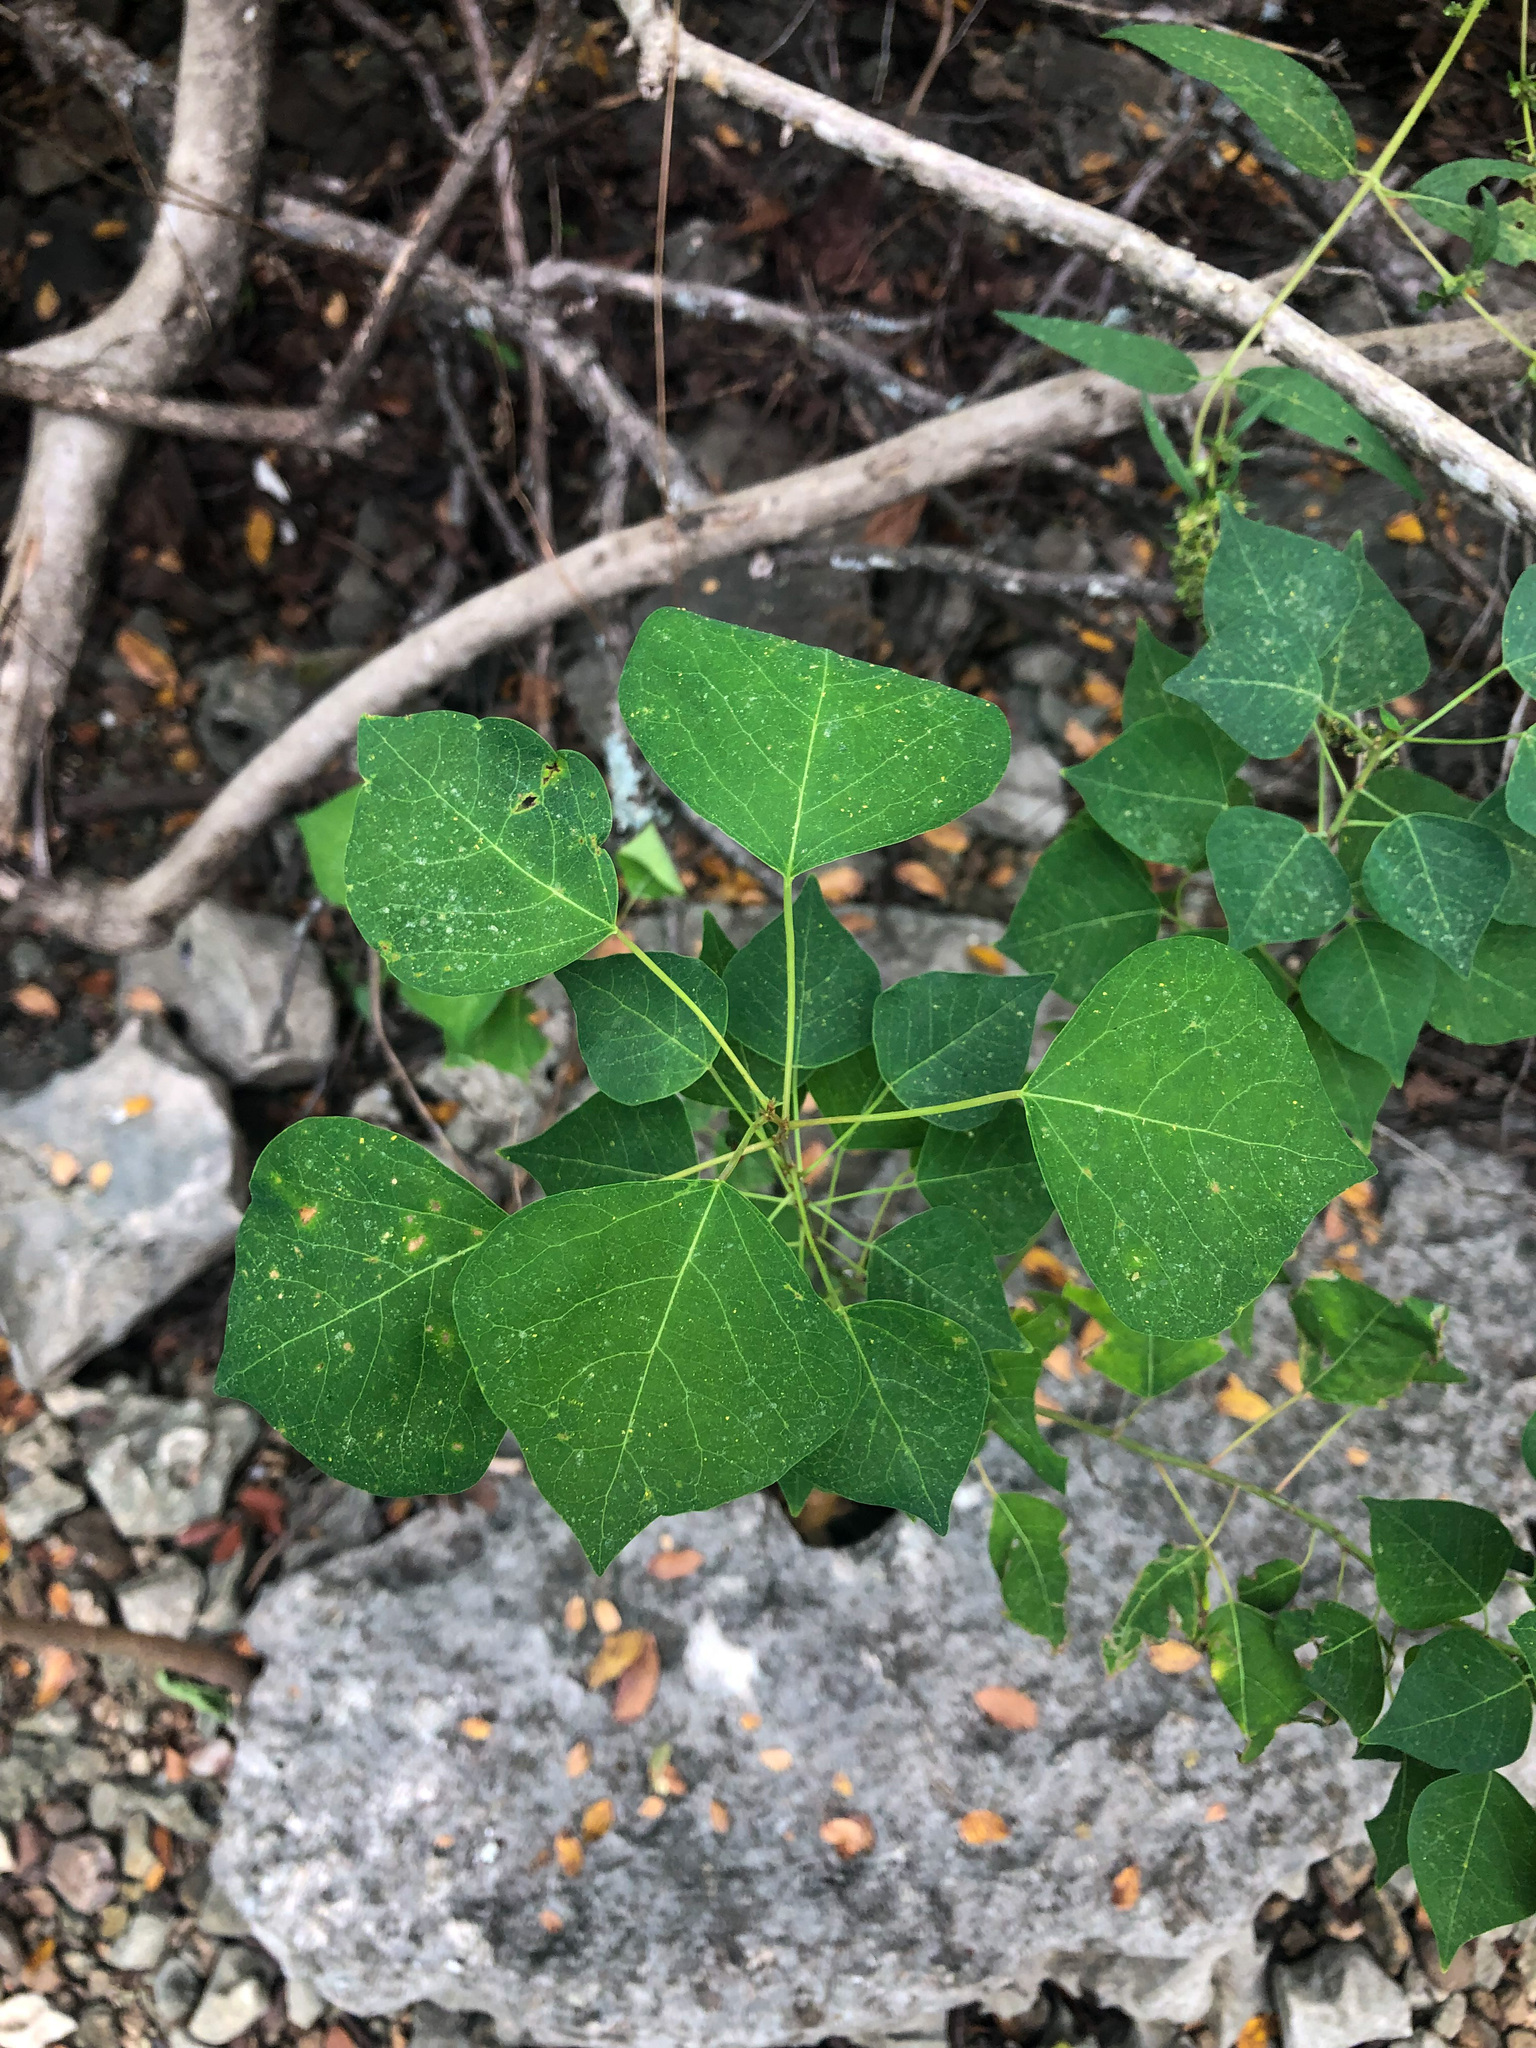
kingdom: Plantae
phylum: Tracheophyta
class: Magnoliopsida
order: Malpighiales
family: Euphorbiaceae
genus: Triadica
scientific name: Triadica sebifera
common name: Chinese tallow
